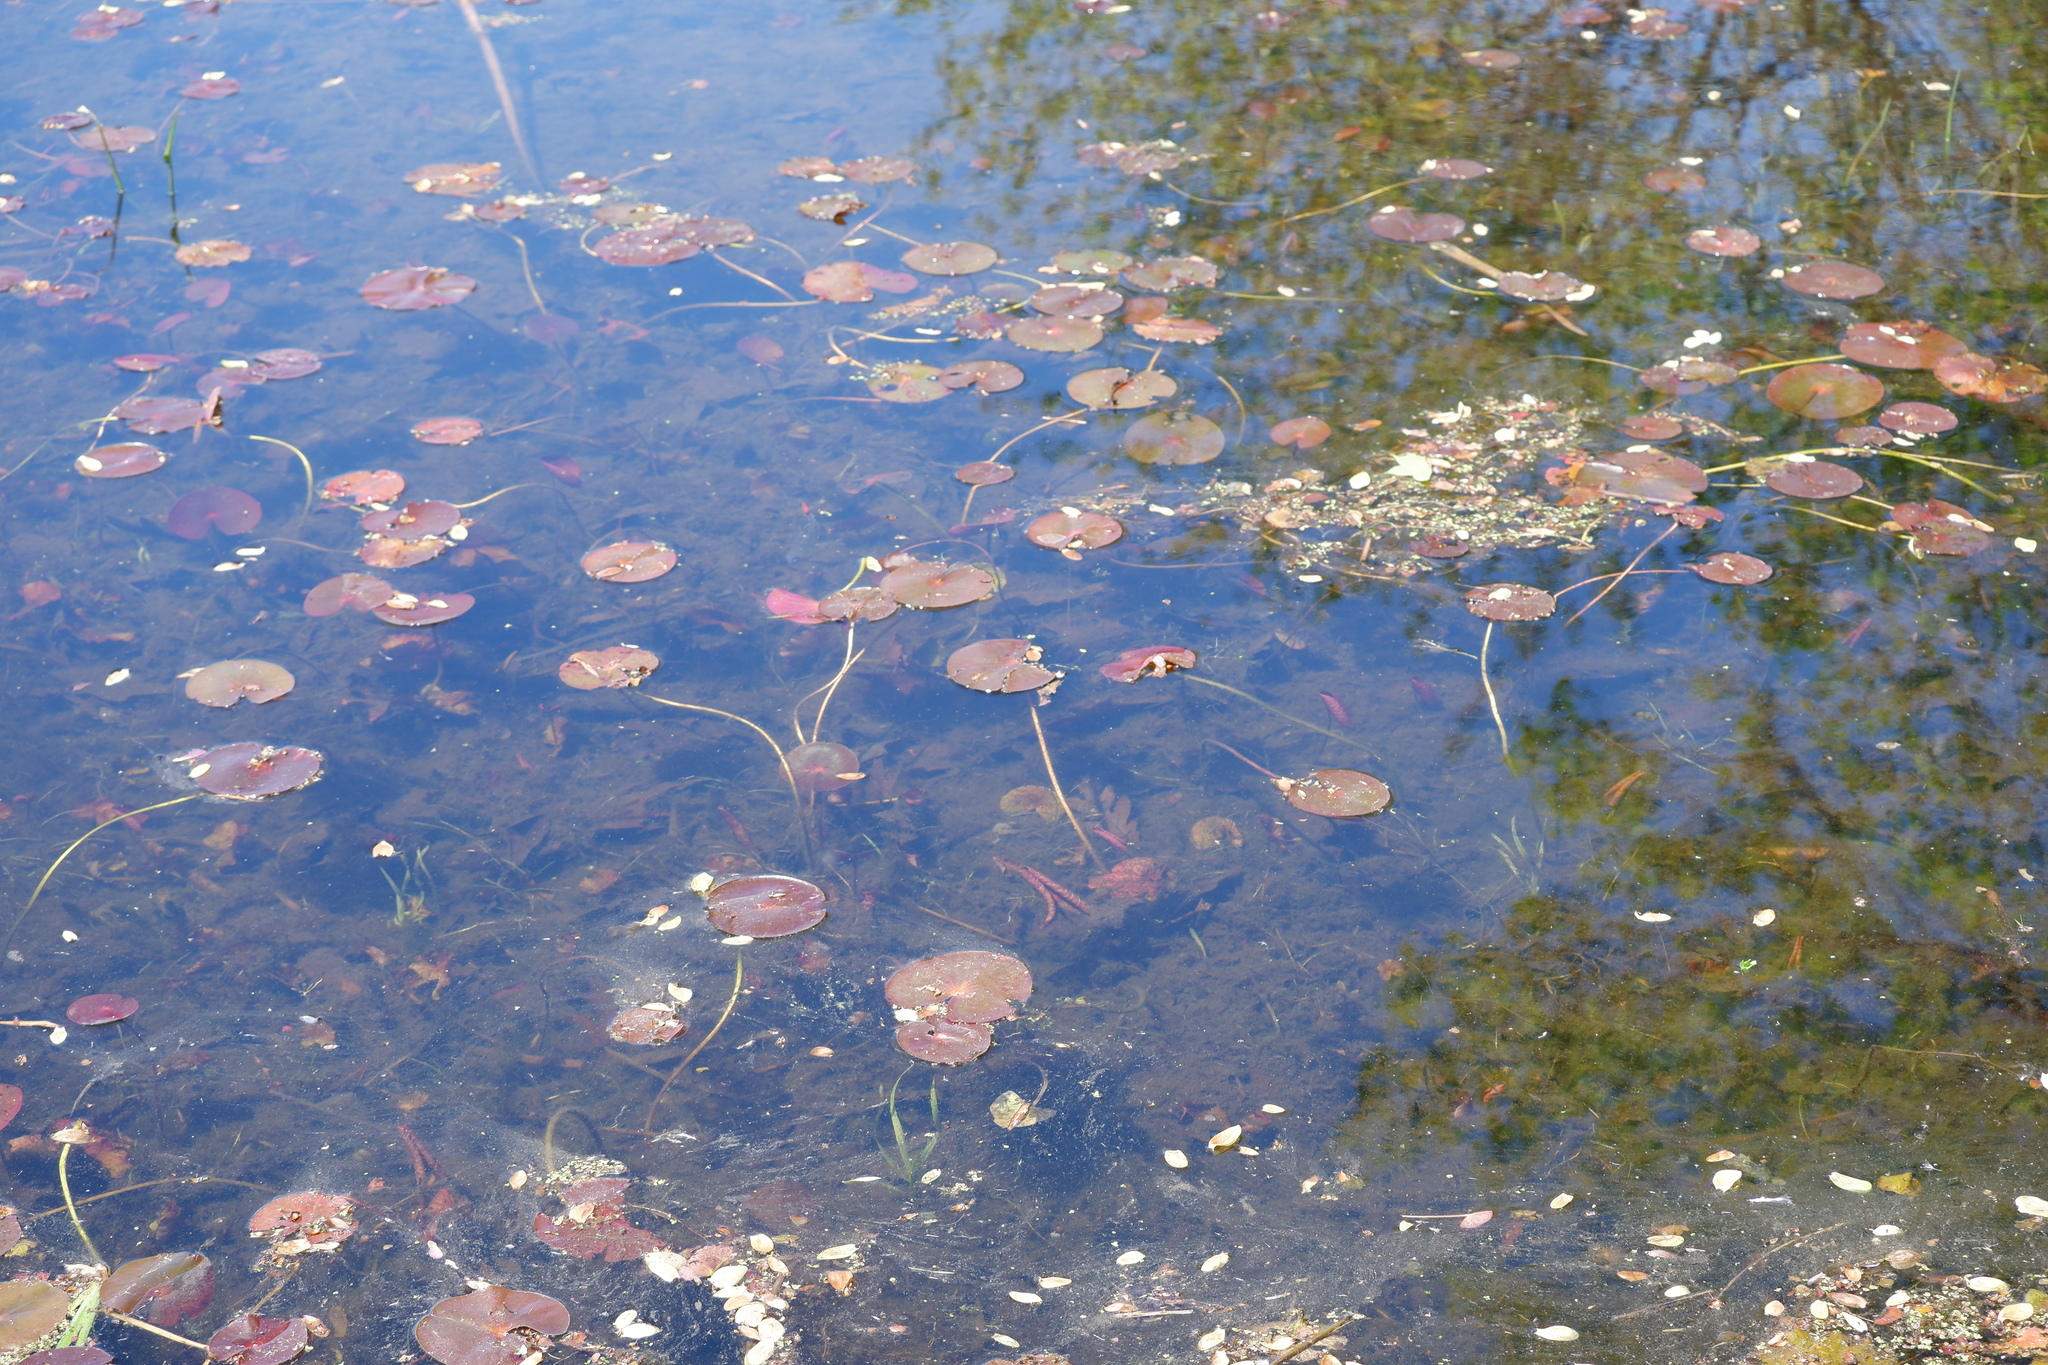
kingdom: Plantae
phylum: Tracheophyta
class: Magnoliopsida
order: Nymphaeales
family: Nymphaeaceae
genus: Nymphaea
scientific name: Nymphaea odorata
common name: Fragrant water-lily
